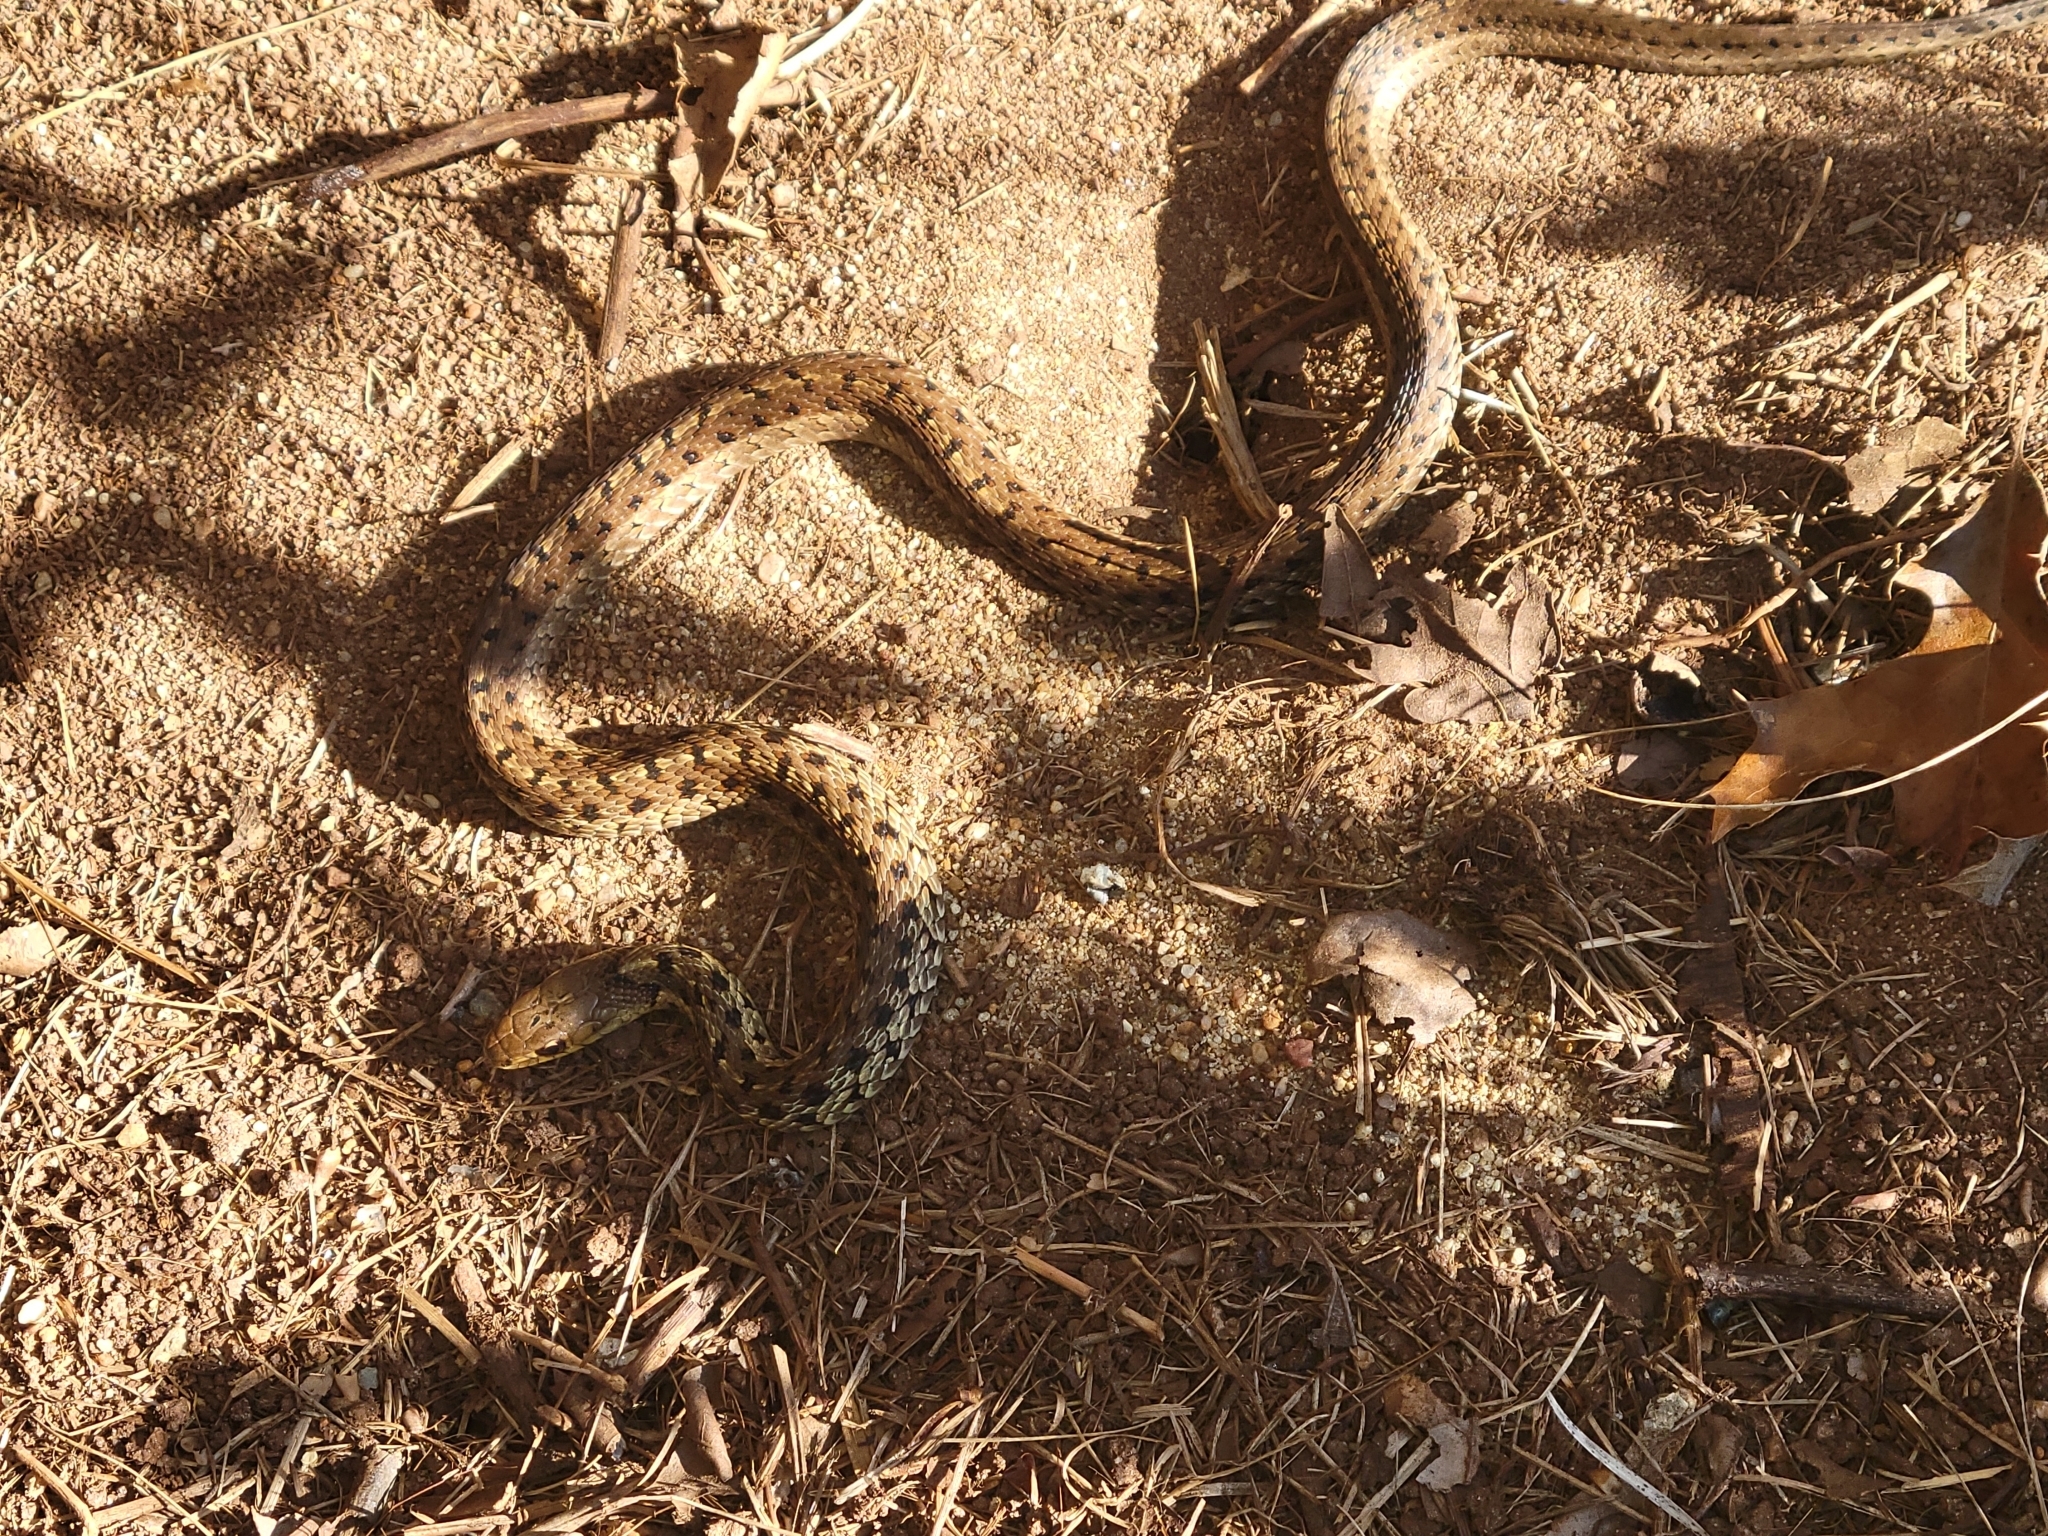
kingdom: Animalia
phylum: Chordata
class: Squamata
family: Colubridae
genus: Thamnophis
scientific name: Thamnophis sirtalis
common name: Common garter snake
